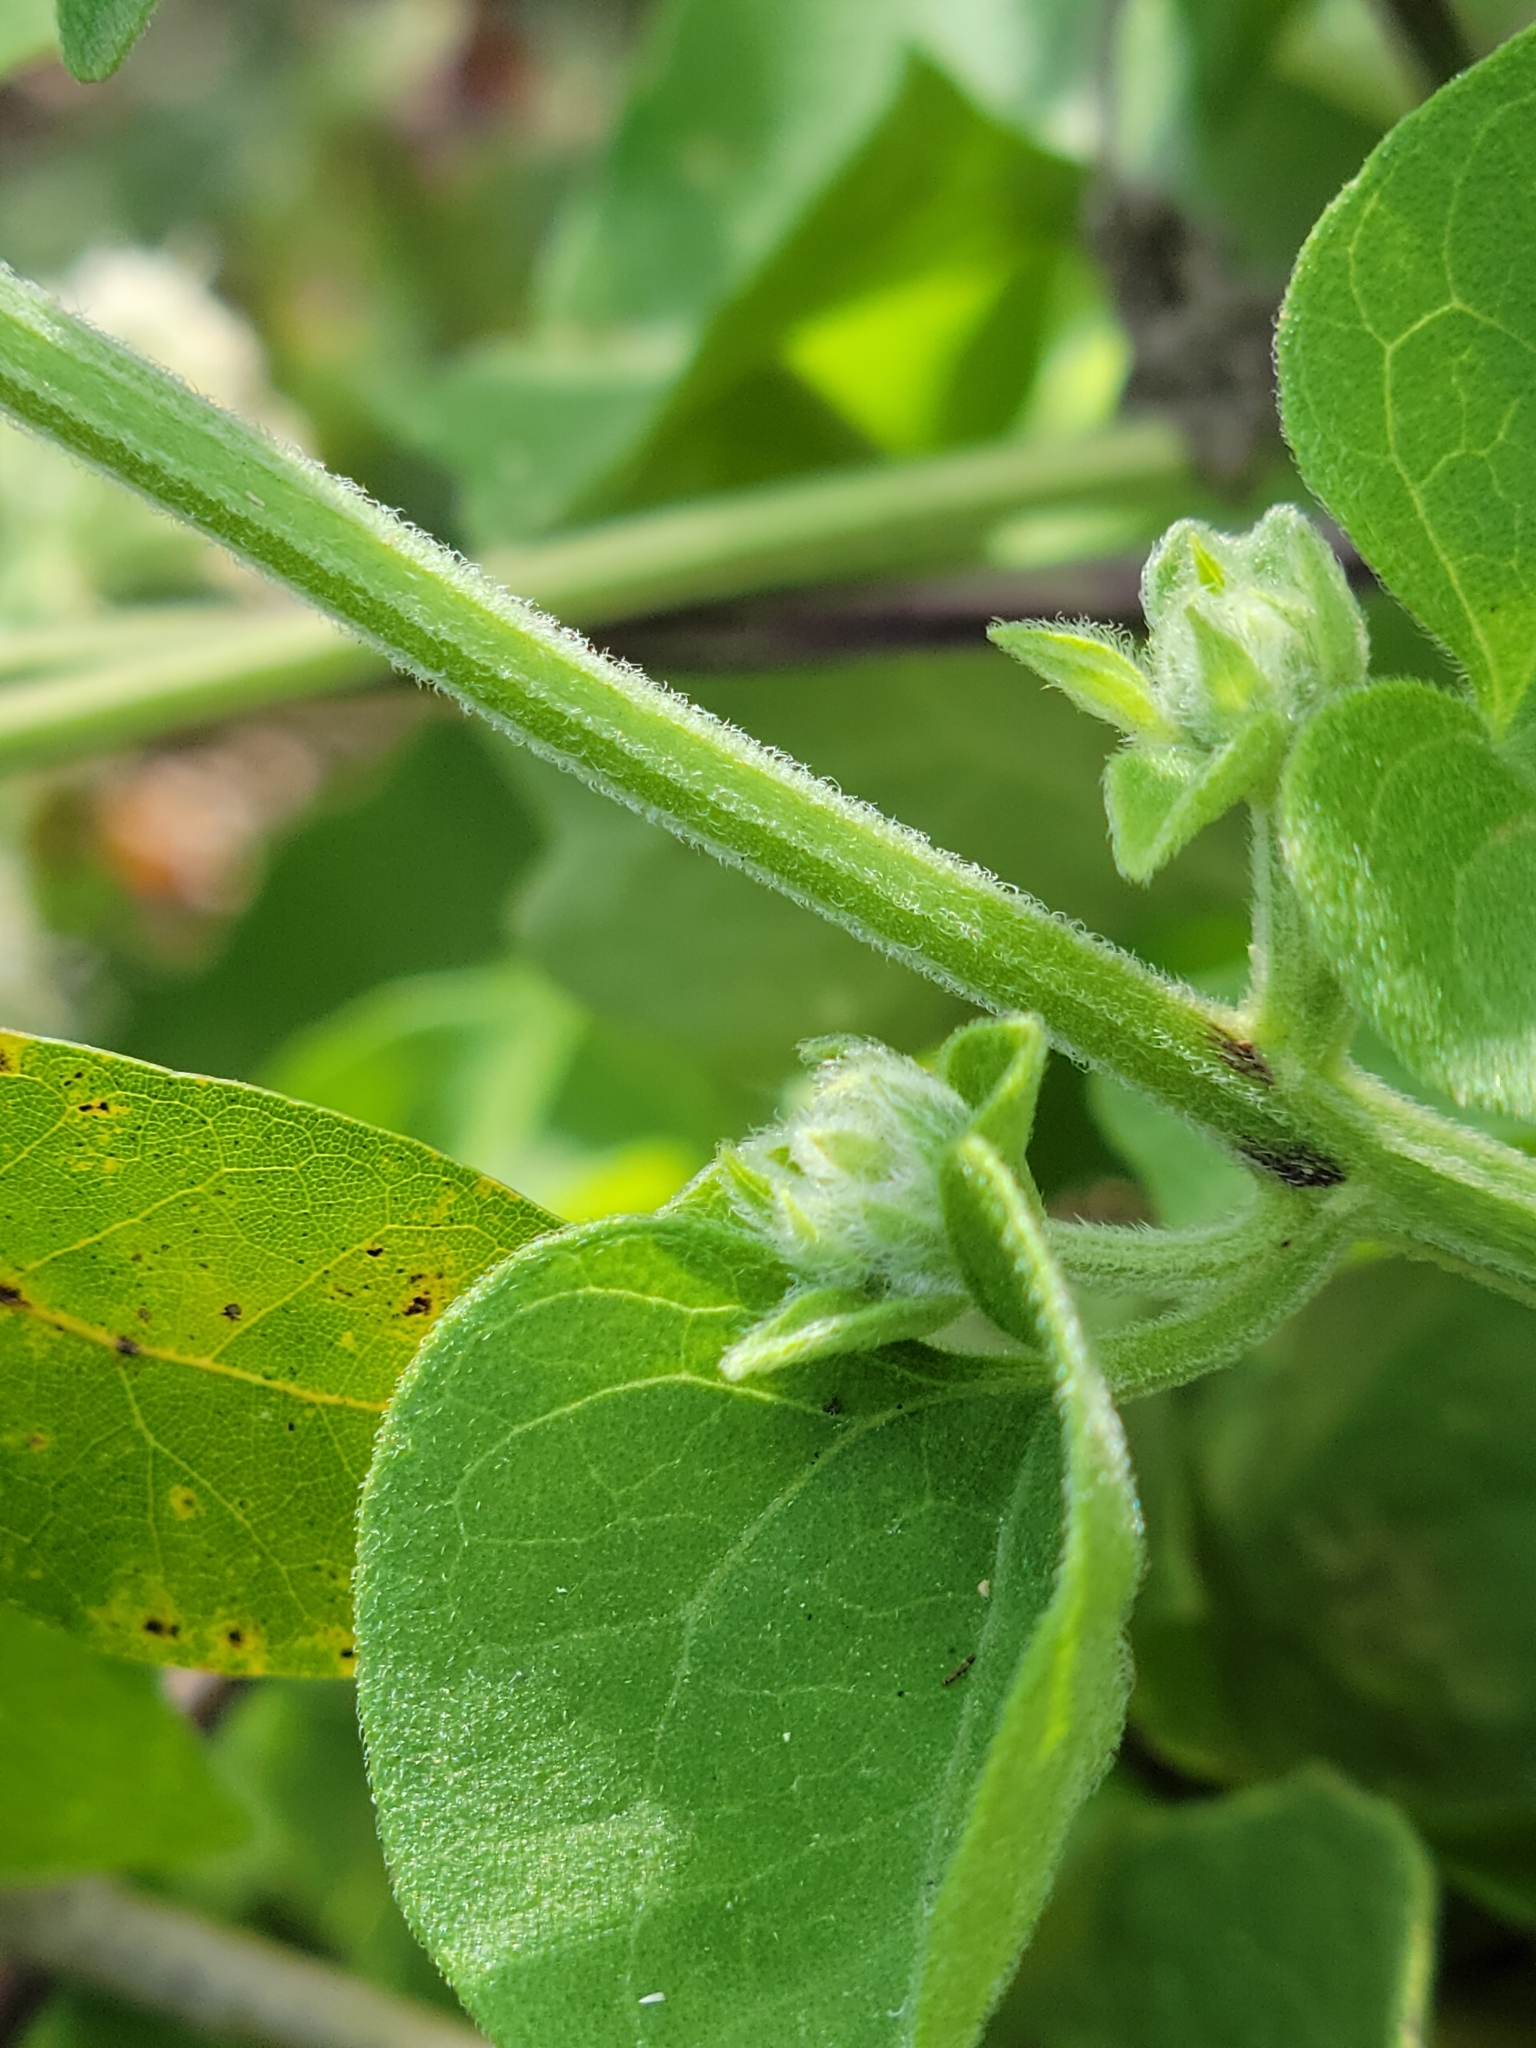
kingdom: Plantae
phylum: Tracheophyta
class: Magnoliopsida
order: Asterales
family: Asteraceae
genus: Mikania
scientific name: Mikania cordifolia
